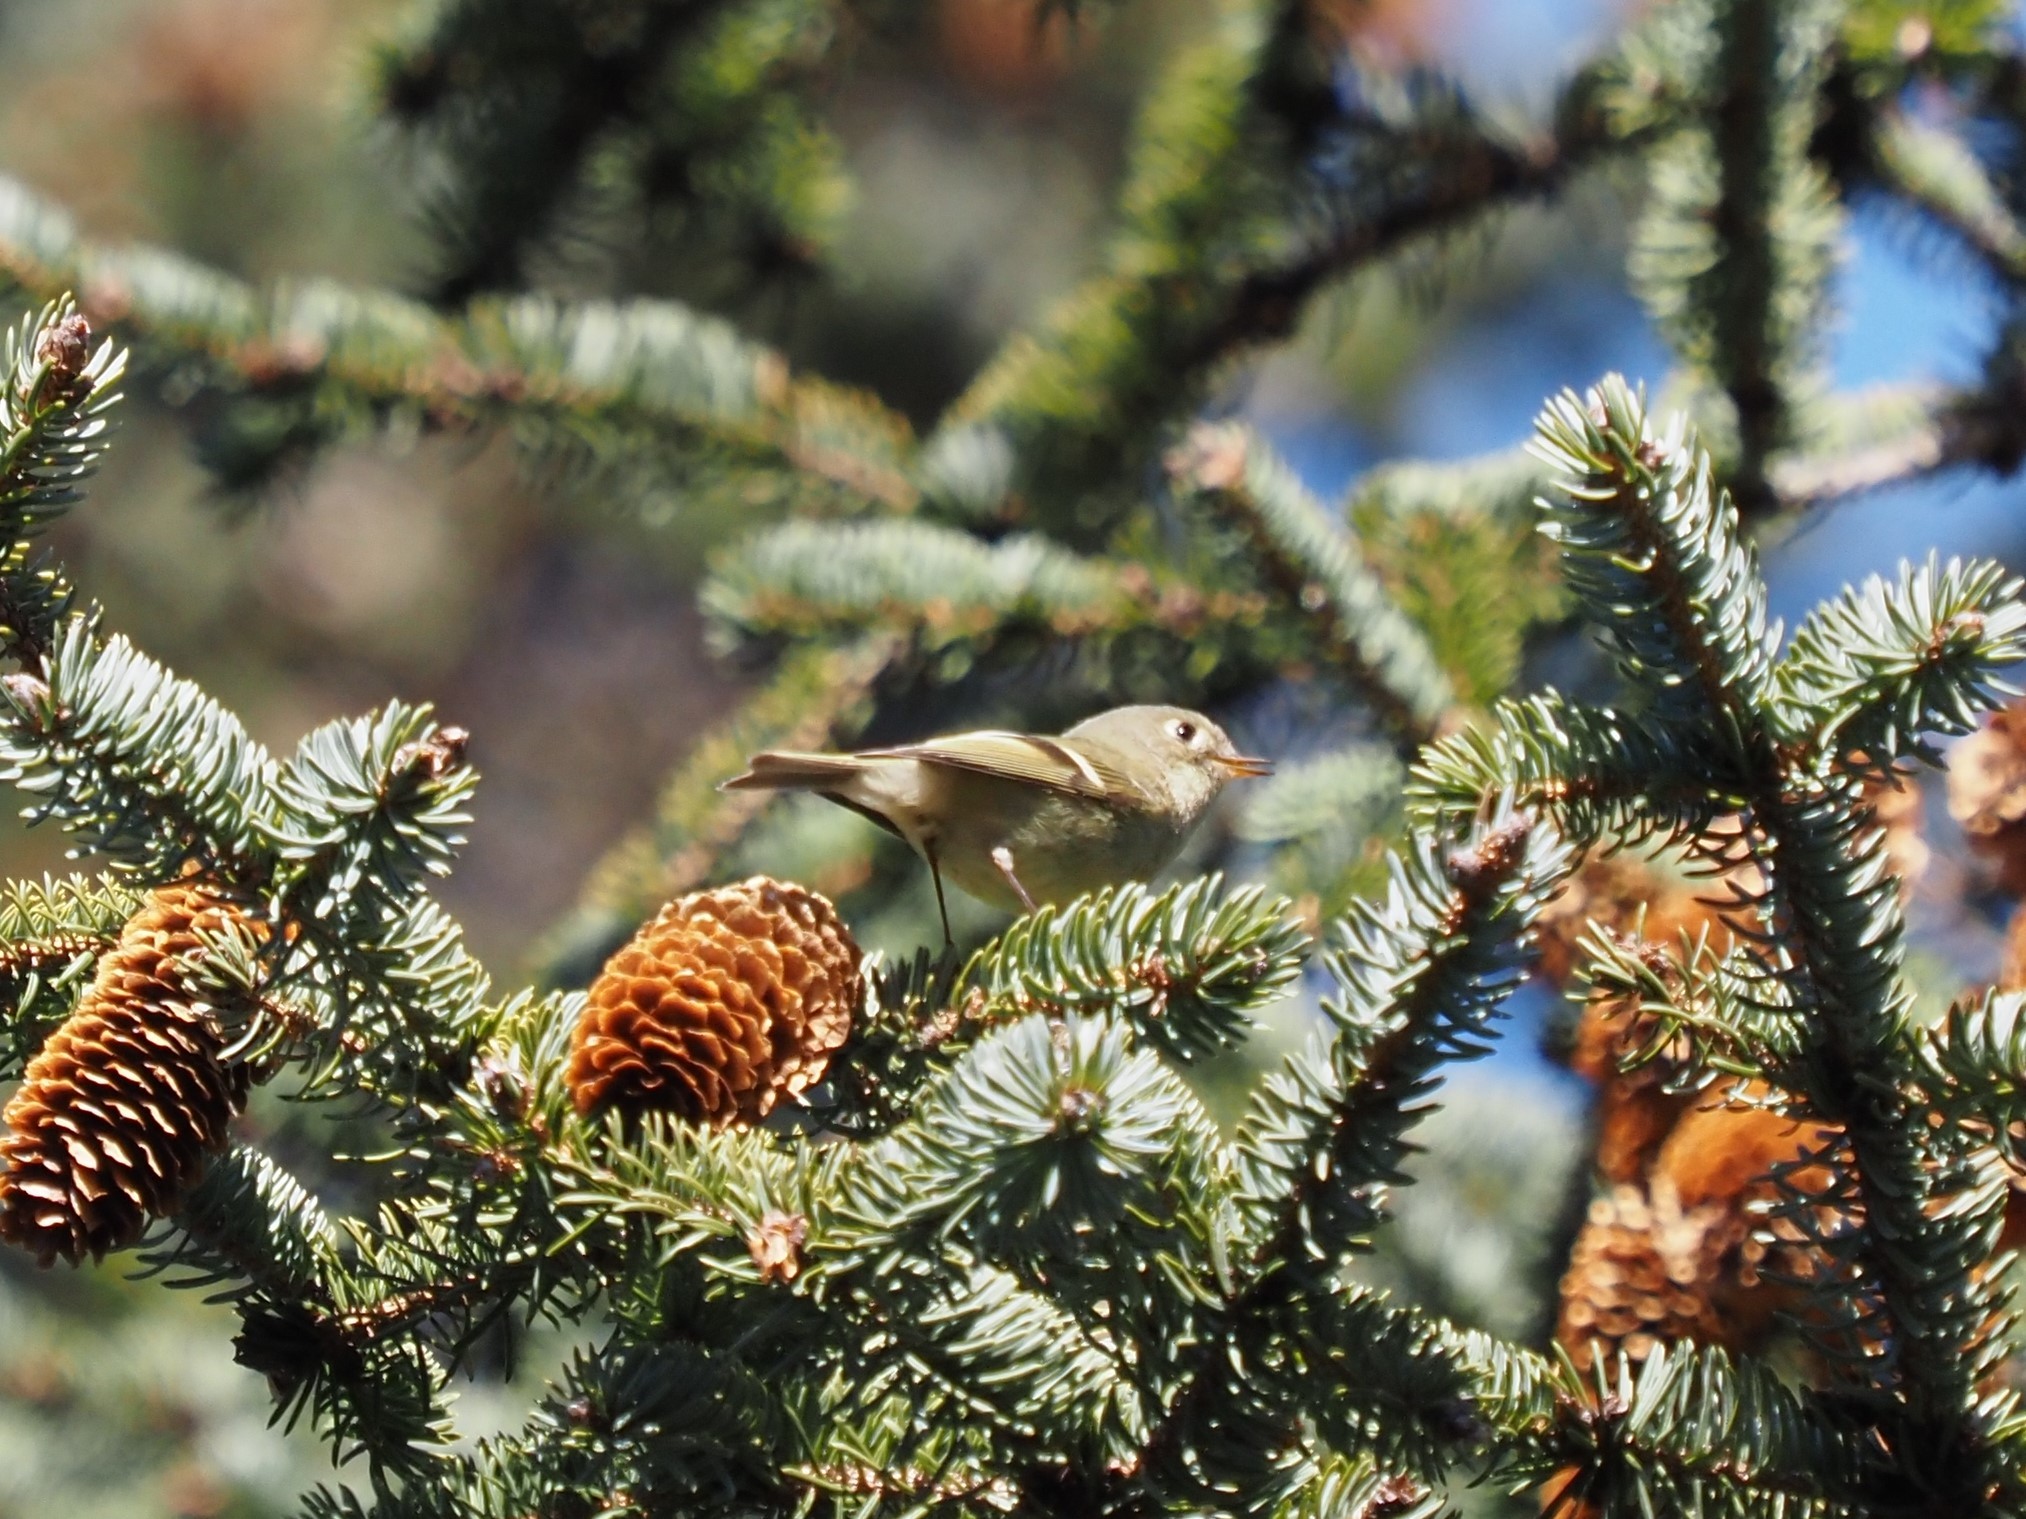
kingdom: Animalia
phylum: Chordata
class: Aves
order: Passeriformes
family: Regulidae
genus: Regulus
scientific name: Regulus calendula
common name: Ruby-crowned kinglet
